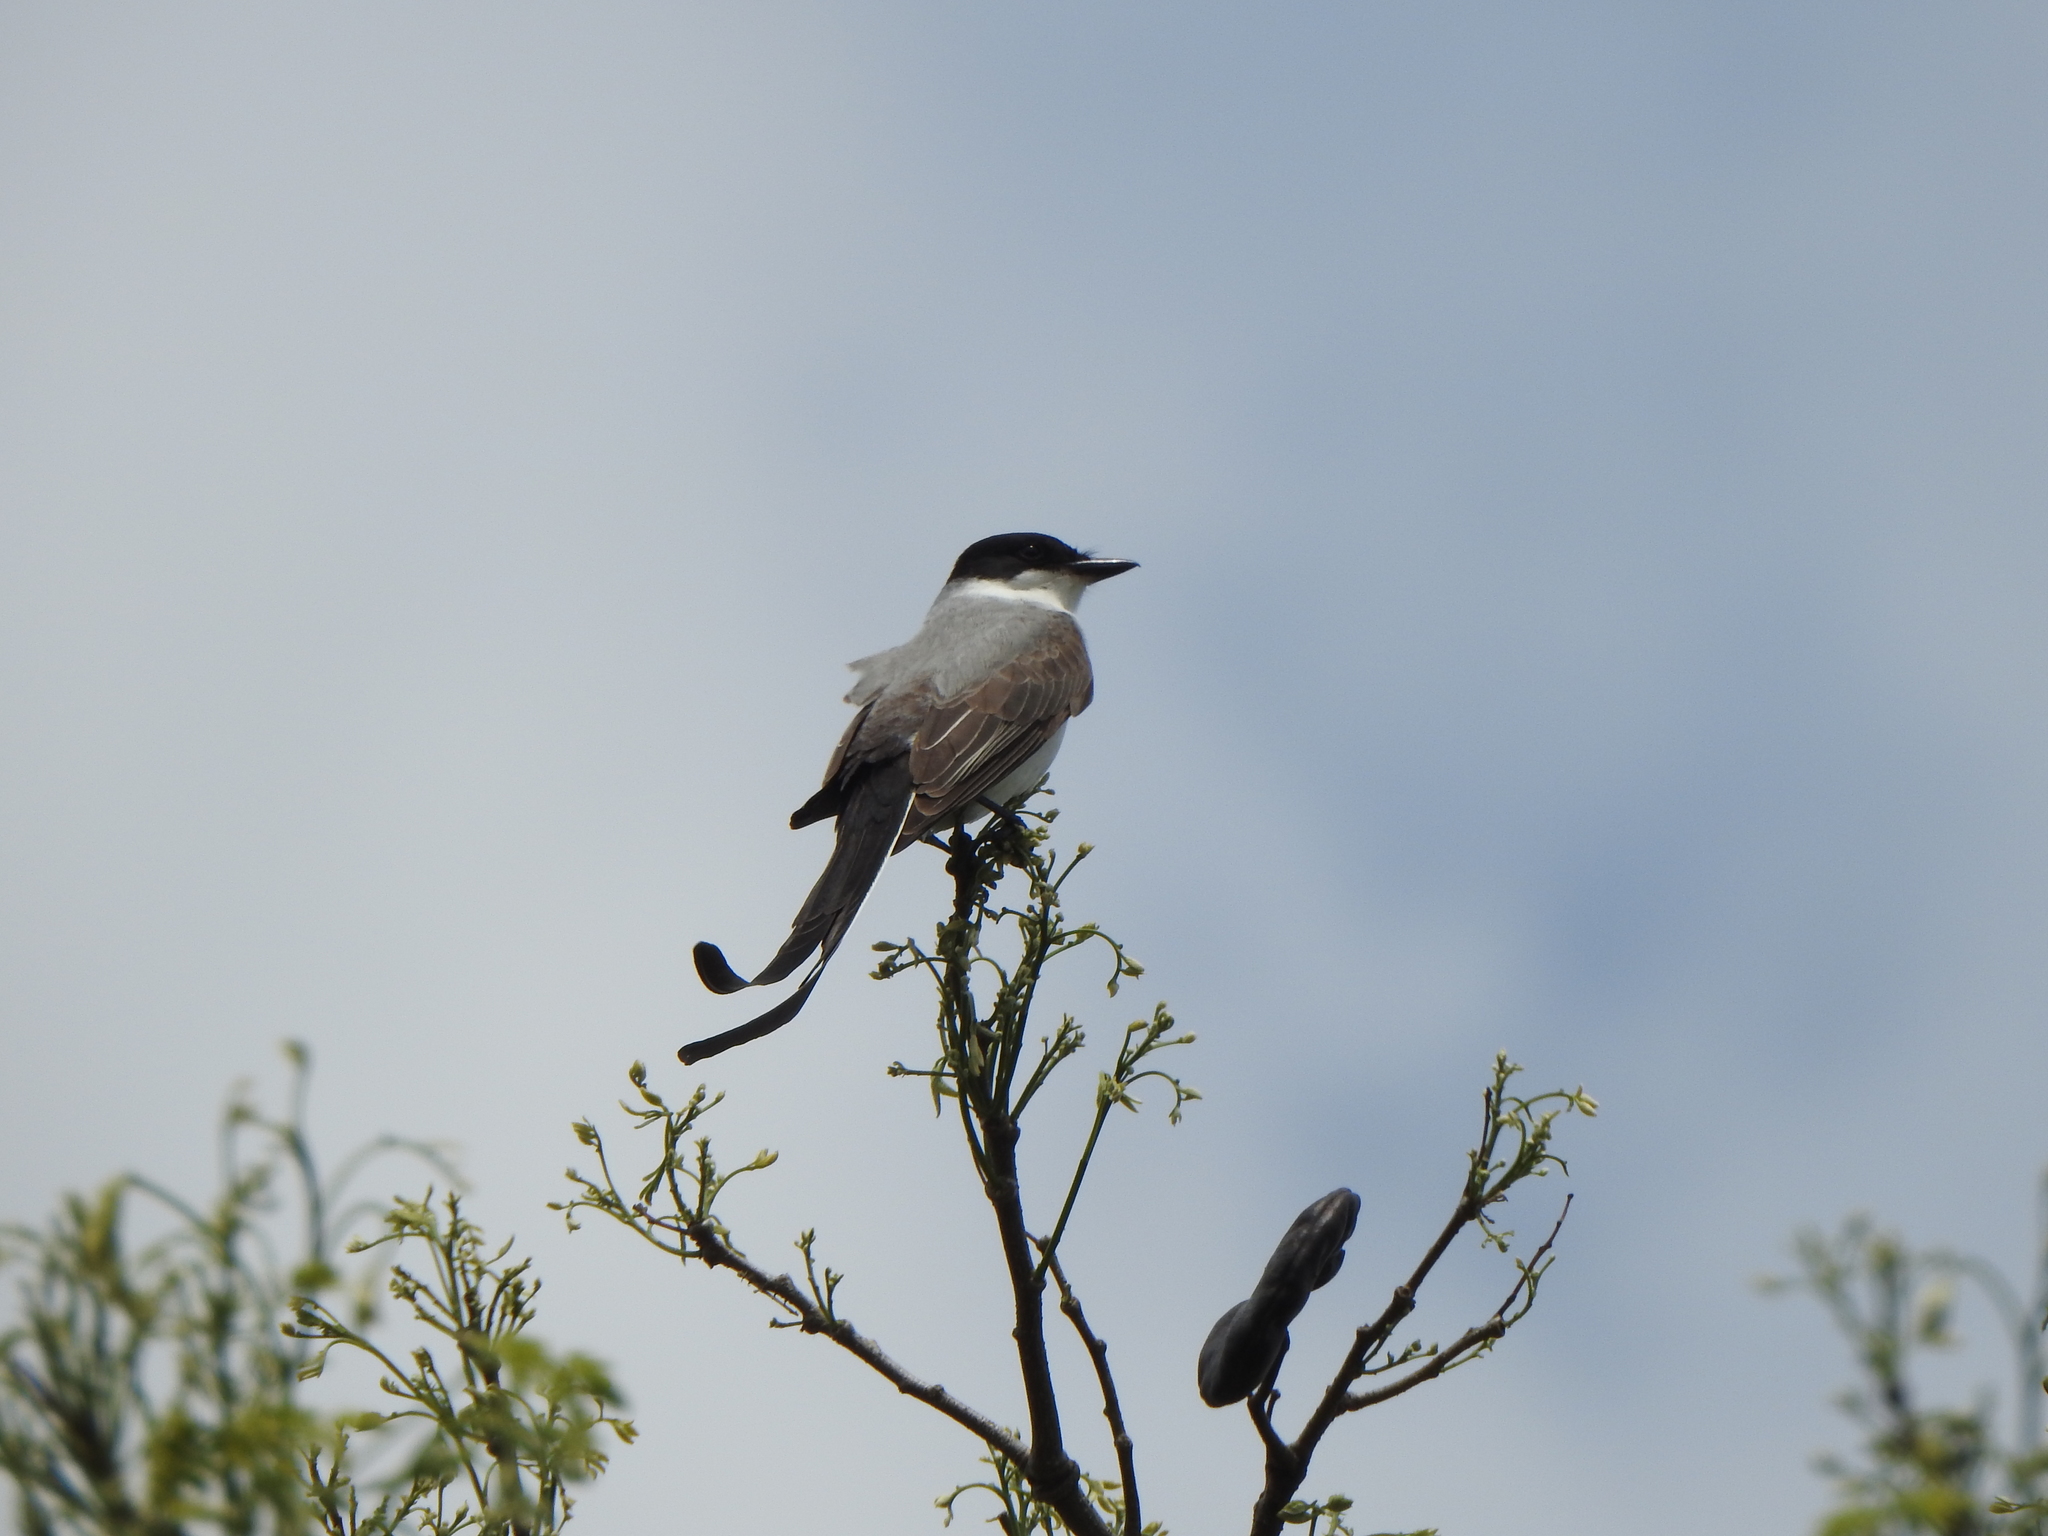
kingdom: Animalia
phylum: Chordata
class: Aves
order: Passeriformes
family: Tyrannidae
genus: Tyrannus
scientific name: Tyrannus savana
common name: Fork-tailed flycatcher
